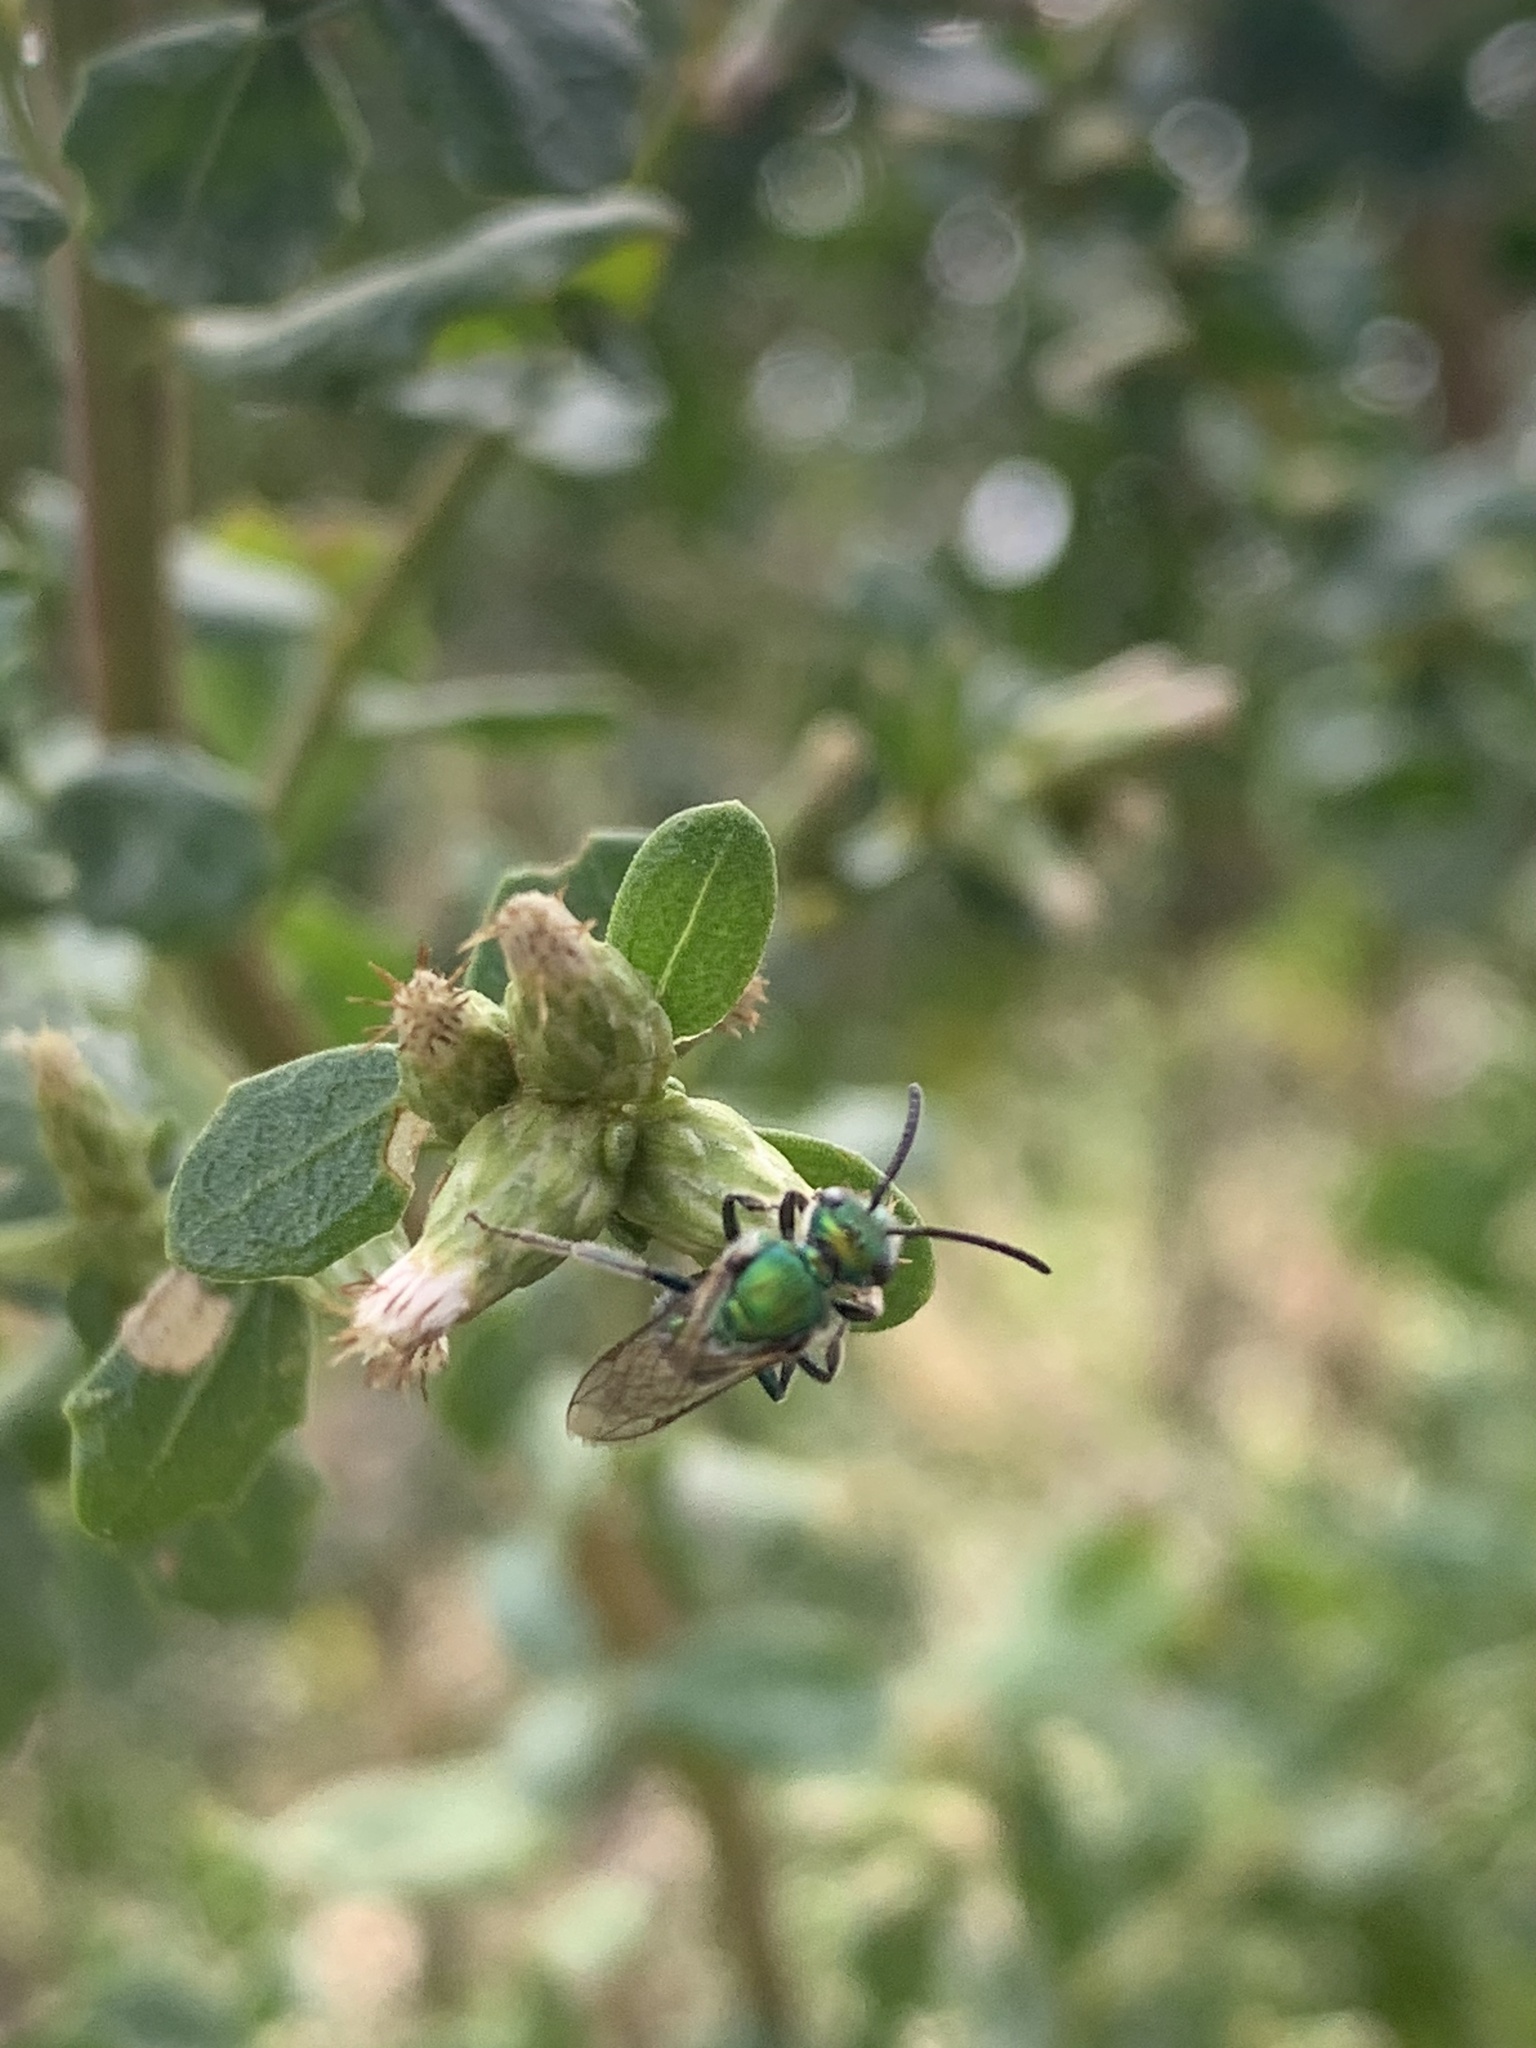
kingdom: Animalia
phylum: Arthropoda
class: Insecta
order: Hymenoptera
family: Halictidae
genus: Augochlorella
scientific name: Augochlorella pomoniella
